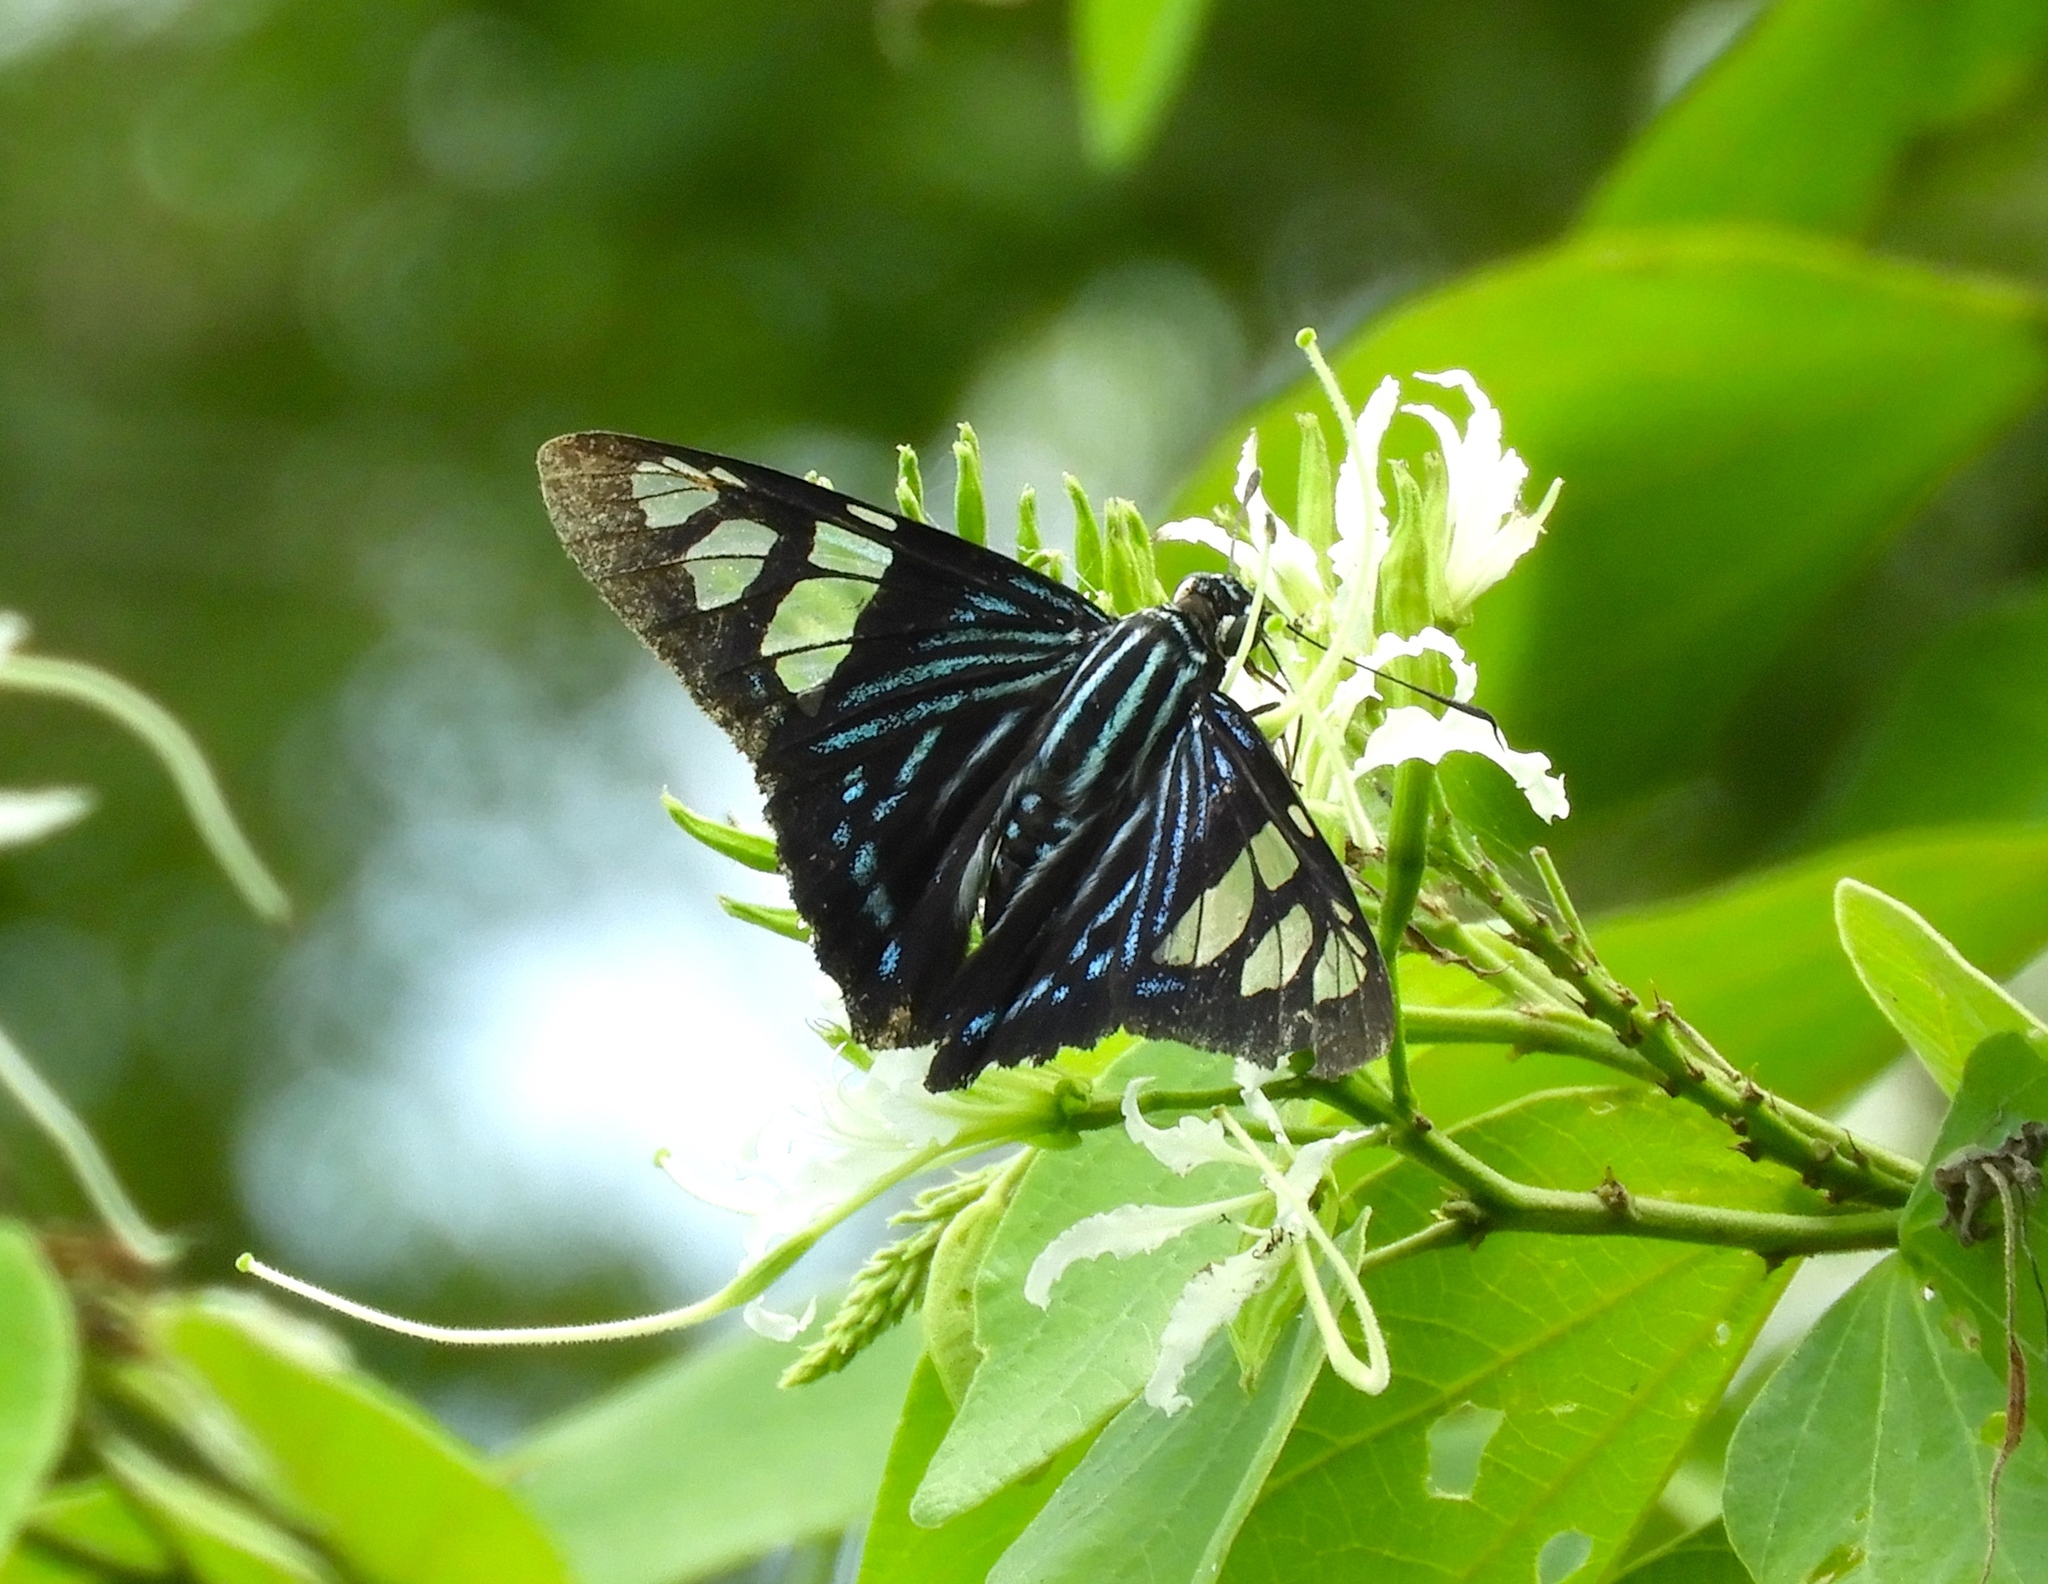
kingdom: Animalia
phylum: Arthropoda
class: Insecta
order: Lepidoptera
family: Hesperiidae
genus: Phocides
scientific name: Phocides pigmalion
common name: Mangrove skipper
